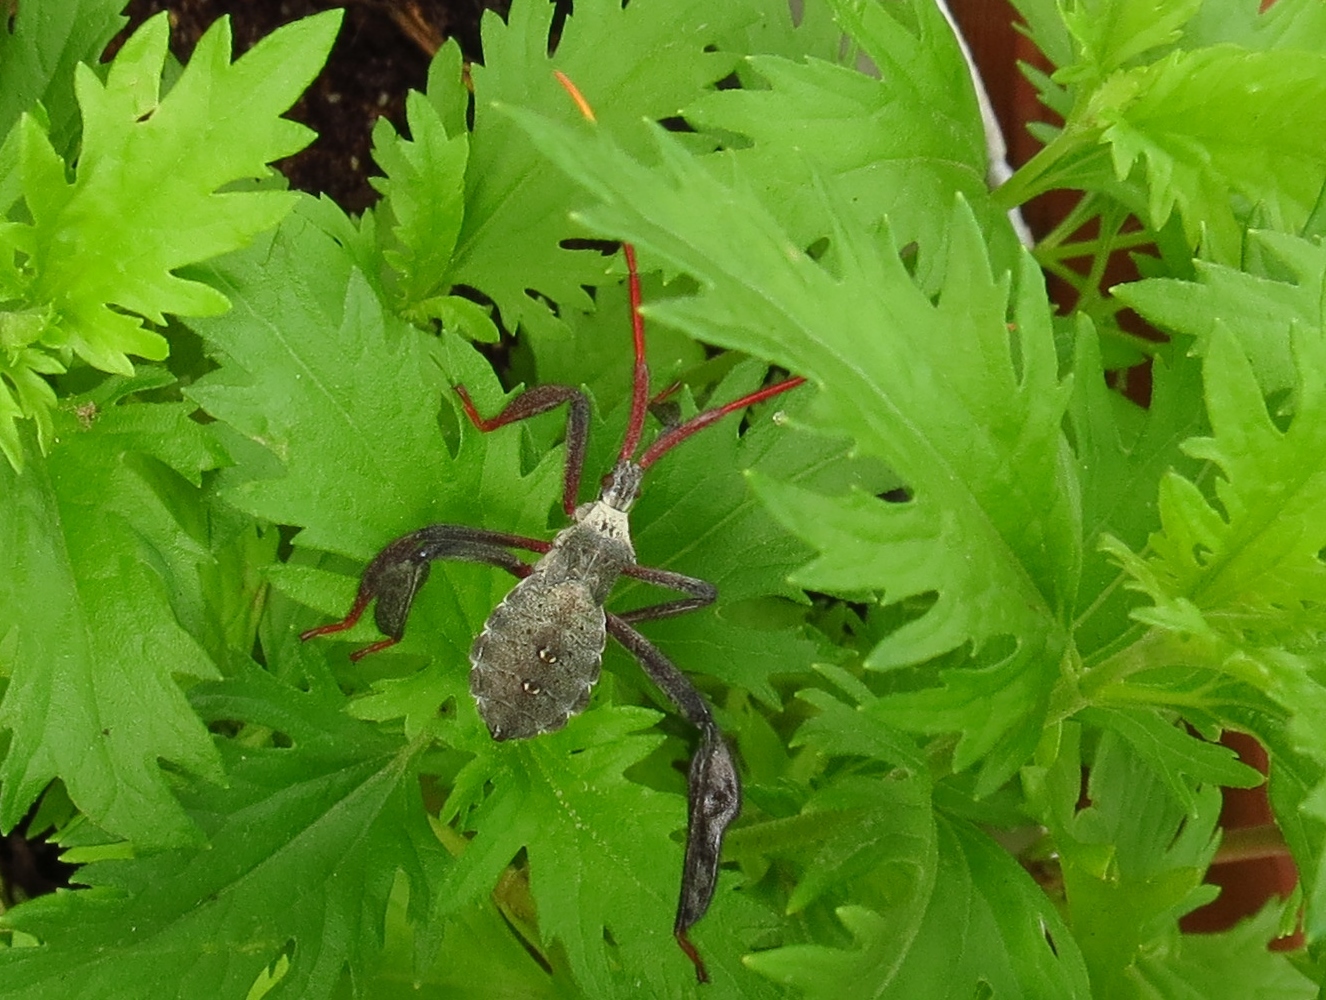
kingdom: Animalia
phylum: Arthropoda
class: Insecta
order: Hemiptera
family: Coreidae
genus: Acanthocephala
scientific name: Acanthocephala declivis
